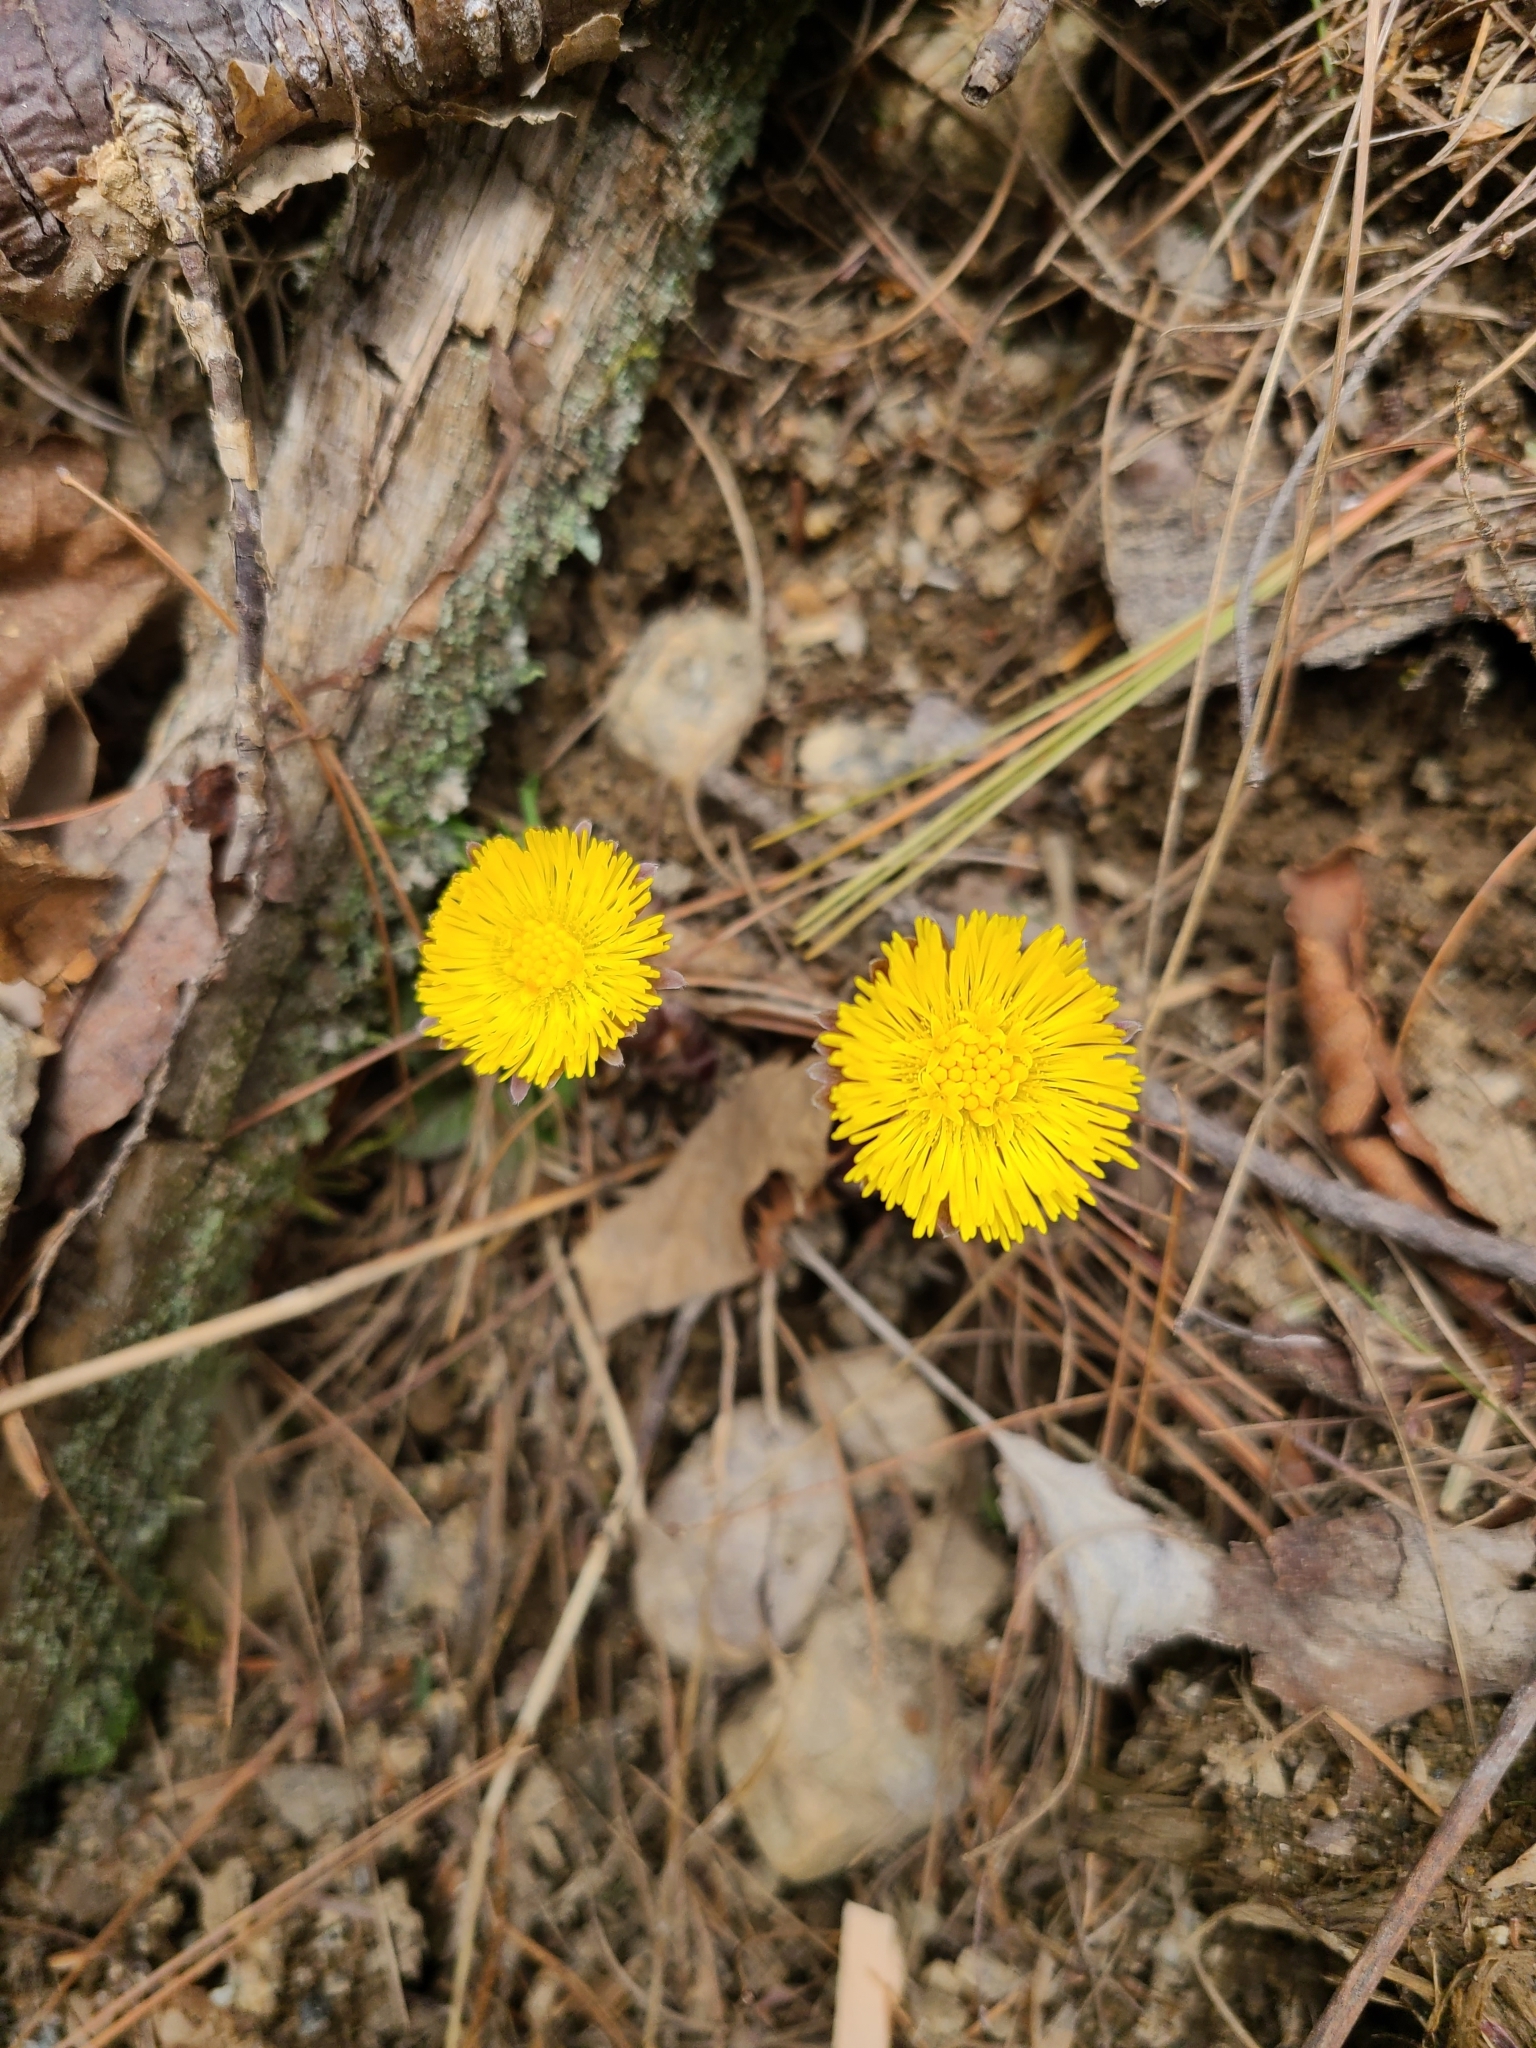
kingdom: Plantae
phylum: Tracheophyta
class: Magnoliopsida
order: Asterales
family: Asteraceae
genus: Tussilago
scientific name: Tussilago farfara
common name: Coltsfoot
